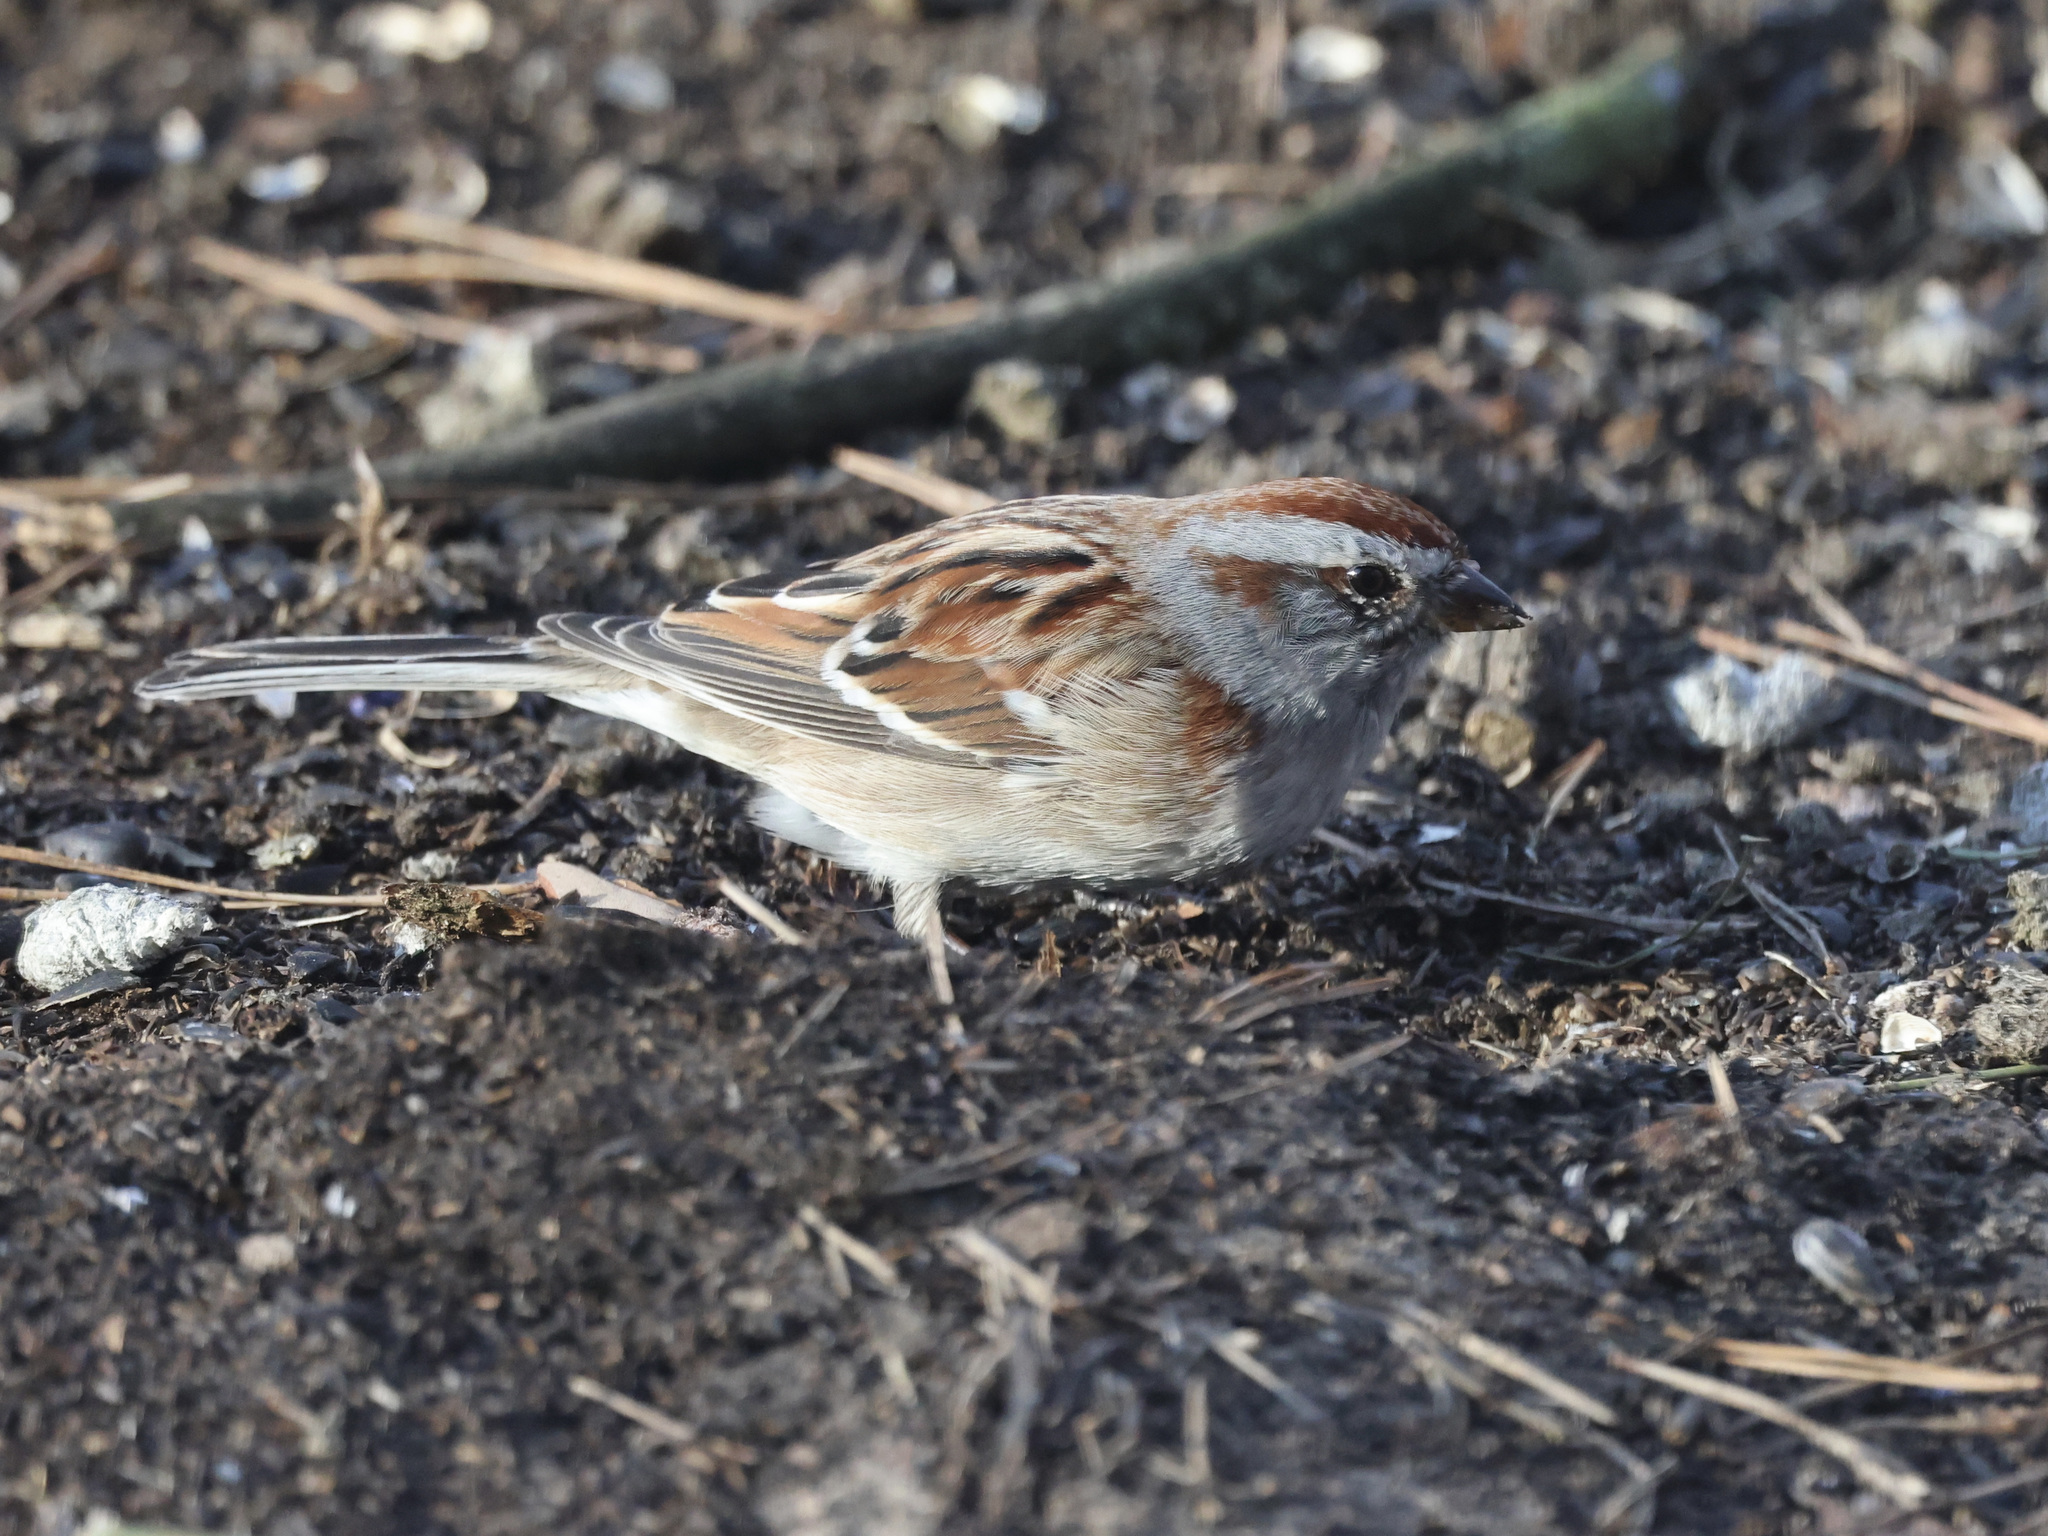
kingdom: Animalia
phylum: Chordata
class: Aves
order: Passeriformes
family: Passerellidae
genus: Spizelloides
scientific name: Spizelloides arborea
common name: American tree sparrow
